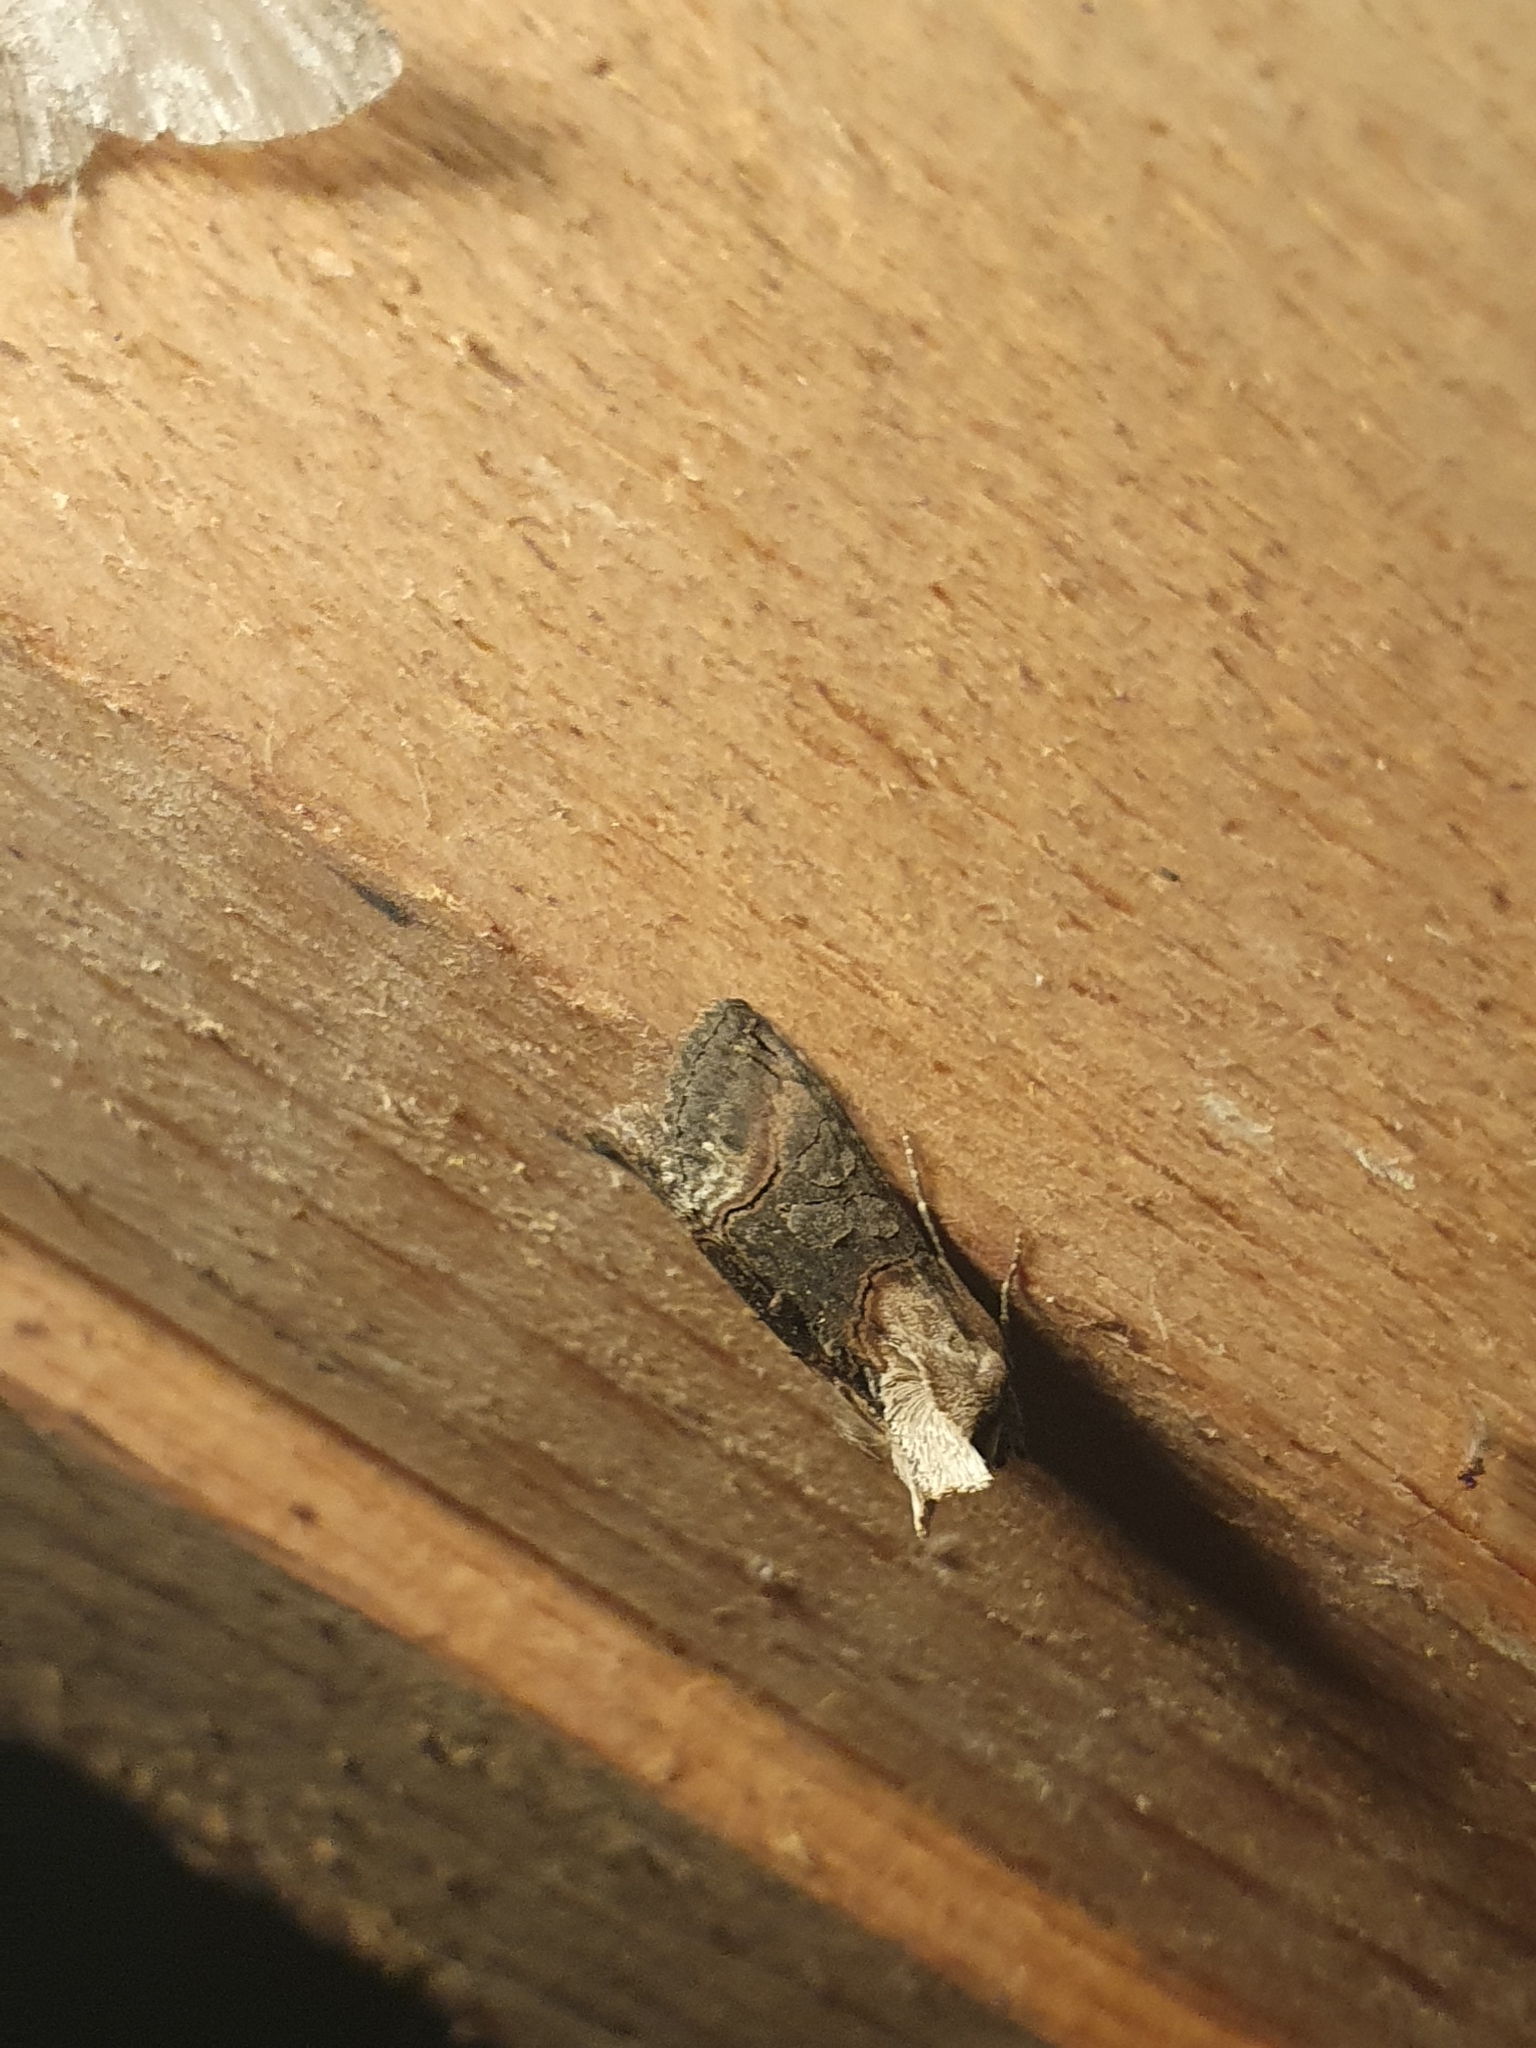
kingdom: Animalia
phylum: Arthropoda
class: Insecta
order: Lepidoptera
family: Noctuidae
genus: Abrostola
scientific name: Abrostola triplasia
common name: Dark spectacle
